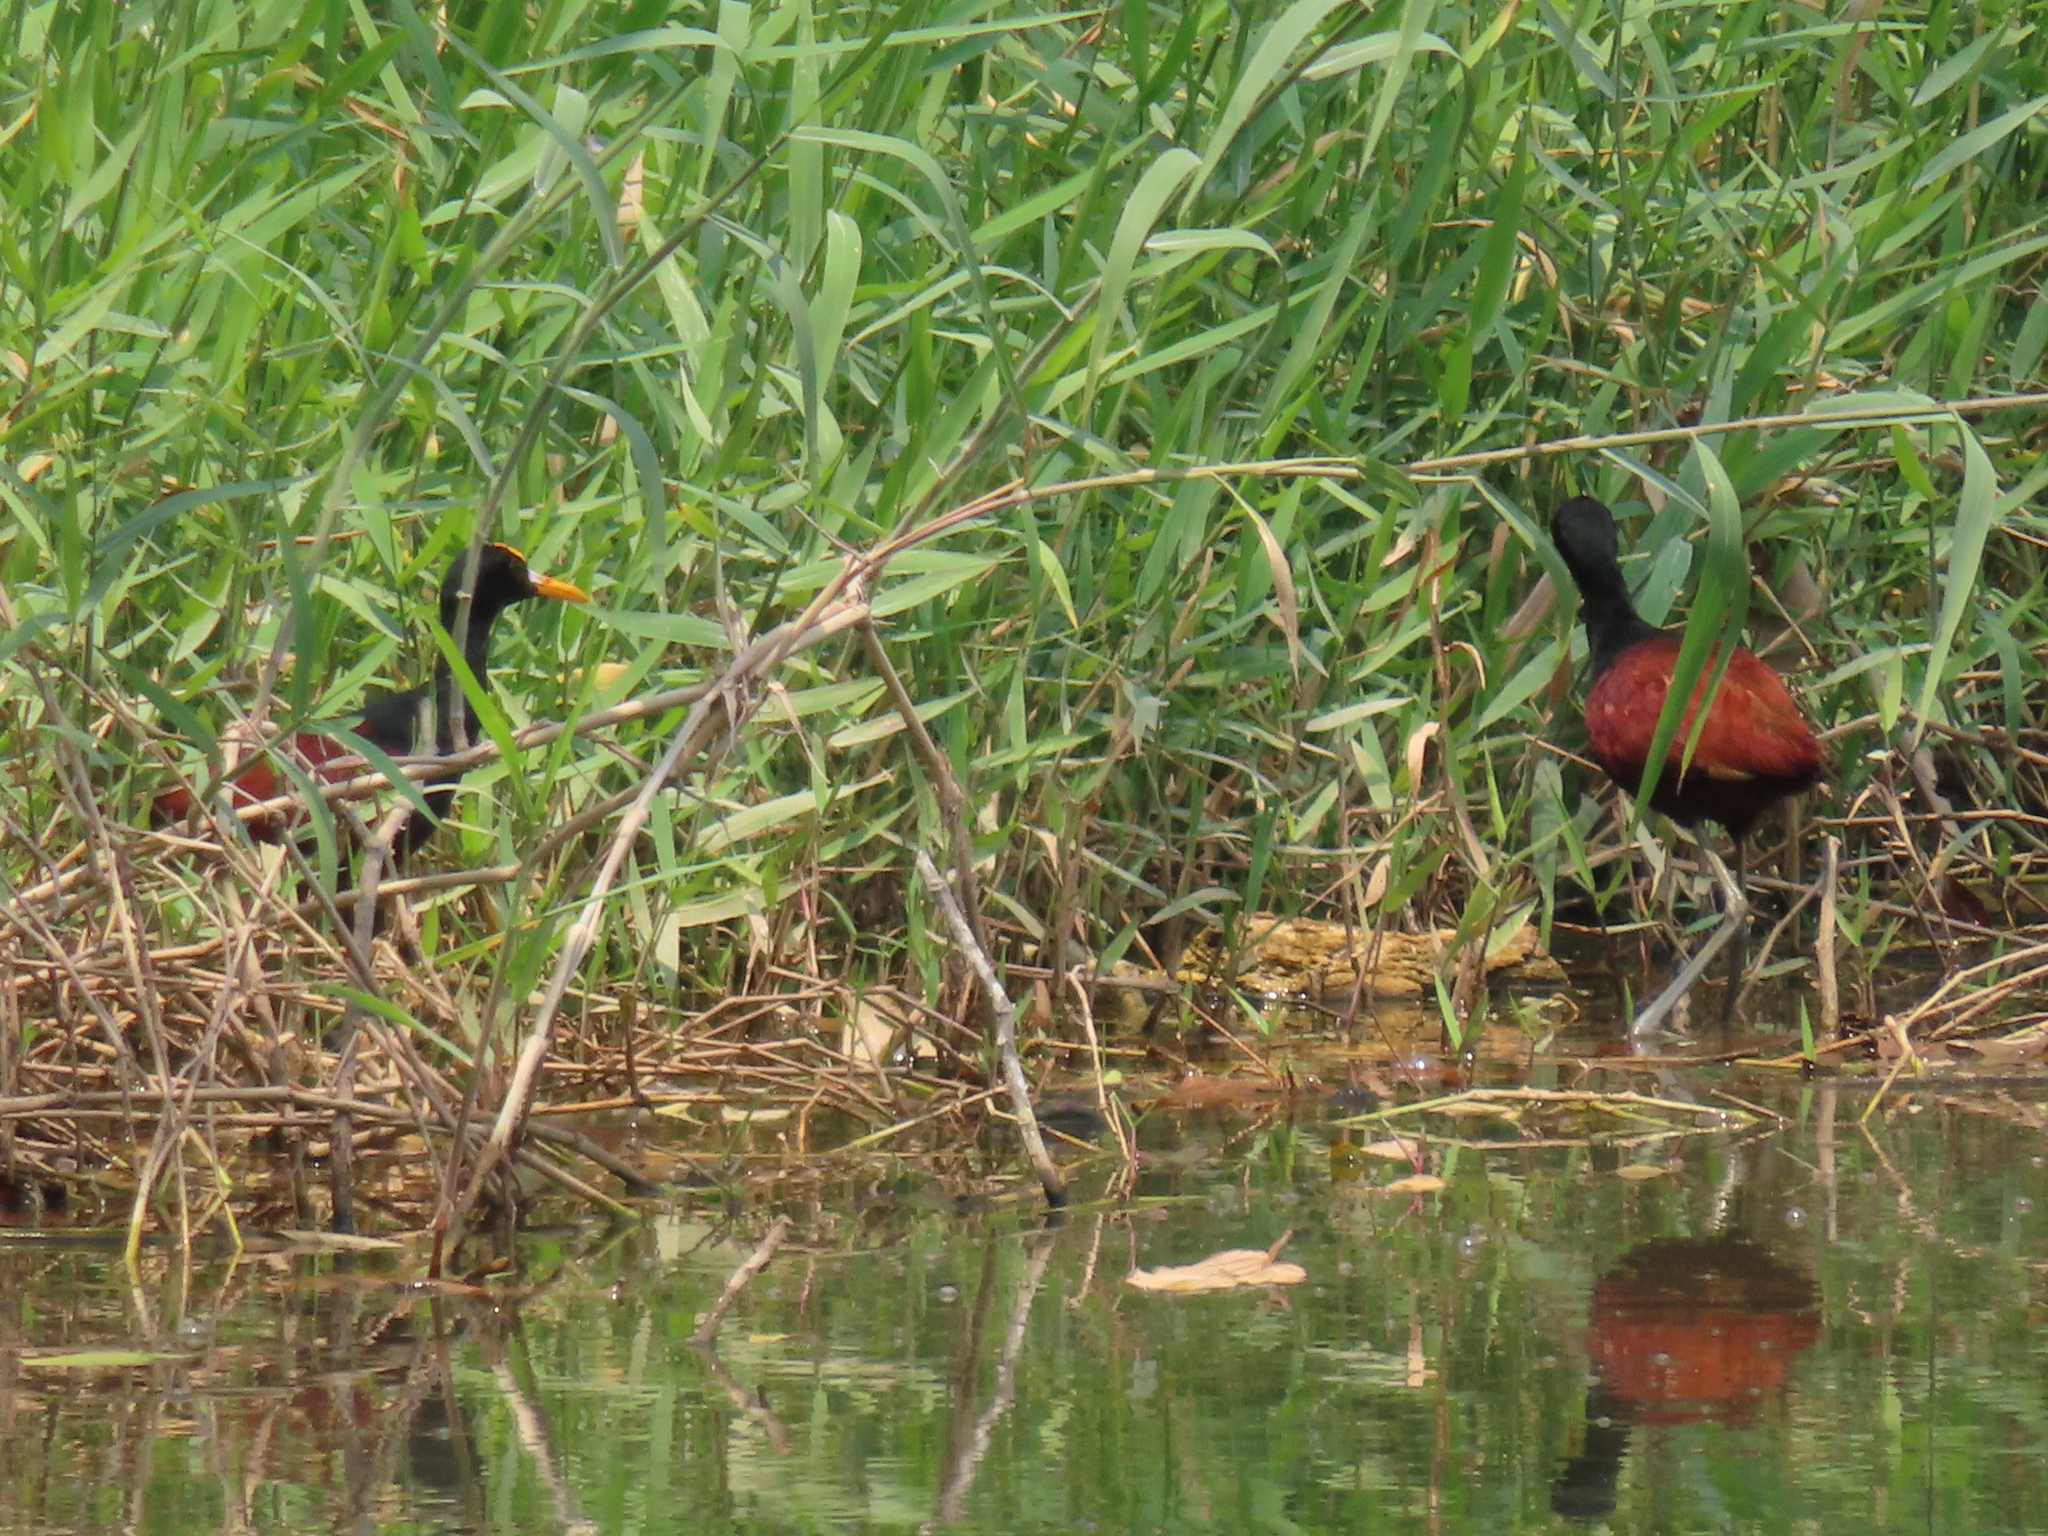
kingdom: Animalia
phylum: Chordata
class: Aves
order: Charadriiformes
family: Jacanidae
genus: Jacana
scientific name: Jacana spinosa
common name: Northern jacana
